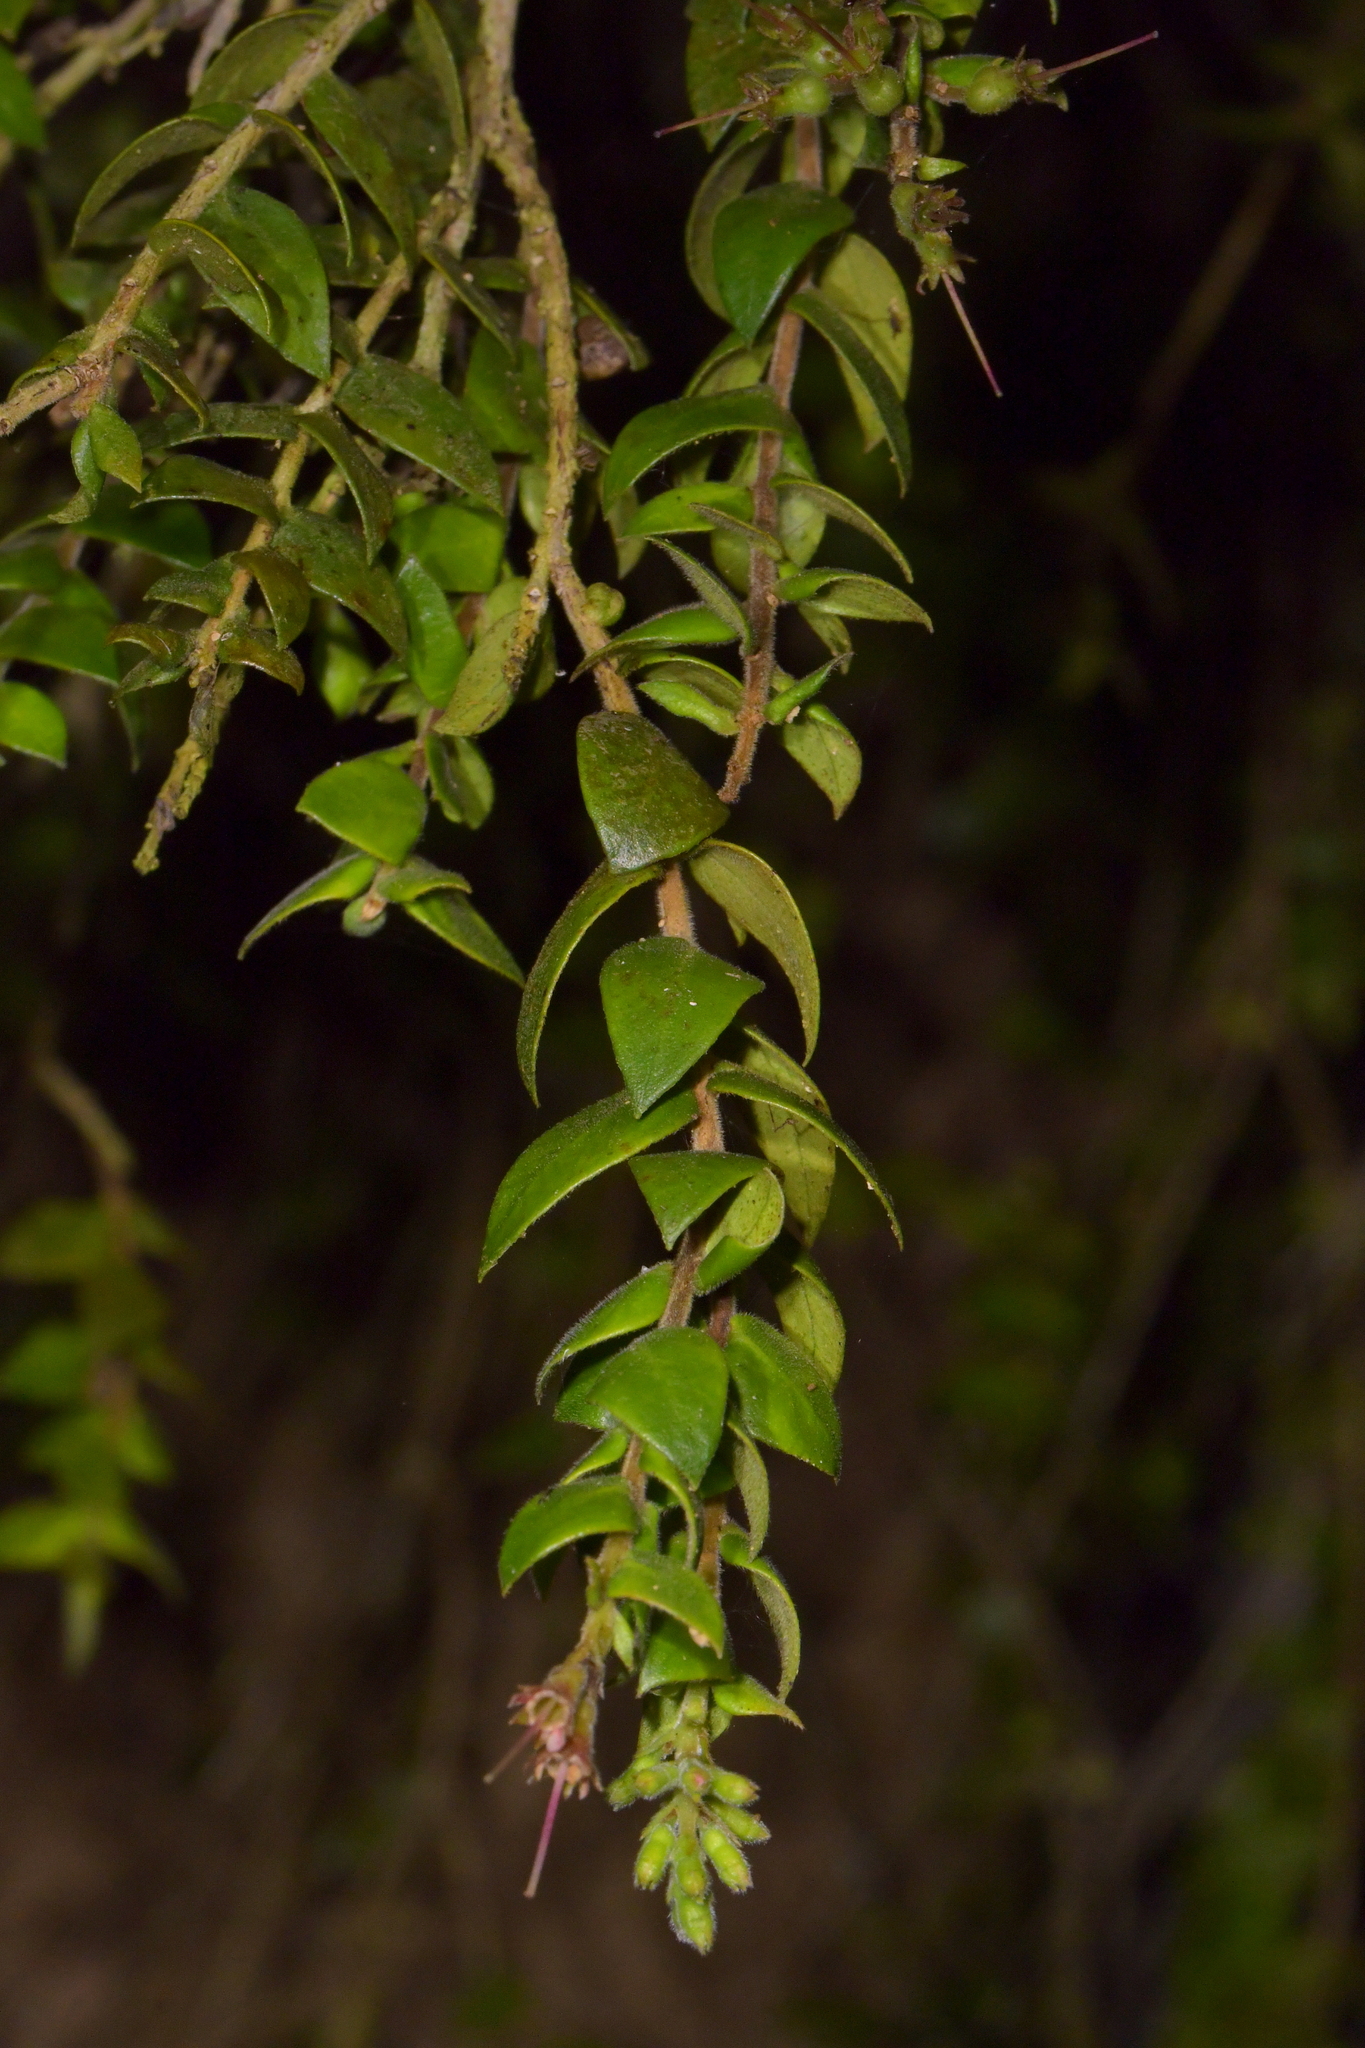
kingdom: Plantae
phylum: Tracheophyta
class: Magnoliopsida
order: Myrtales
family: Myrtaceae
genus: Metrosideros
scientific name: Metrosideros colensoi
